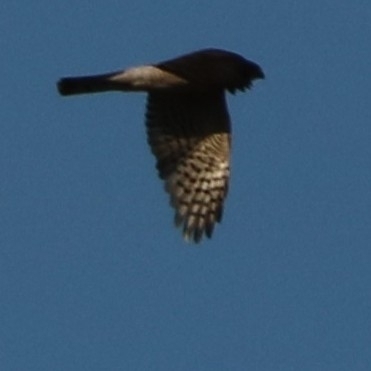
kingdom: Animalia
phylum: Chordata
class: Aves
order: Accipitriformes
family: Accipitridae
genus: Accipiter
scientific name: Accipiter nisus
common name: Eurasian sparrowhawk
